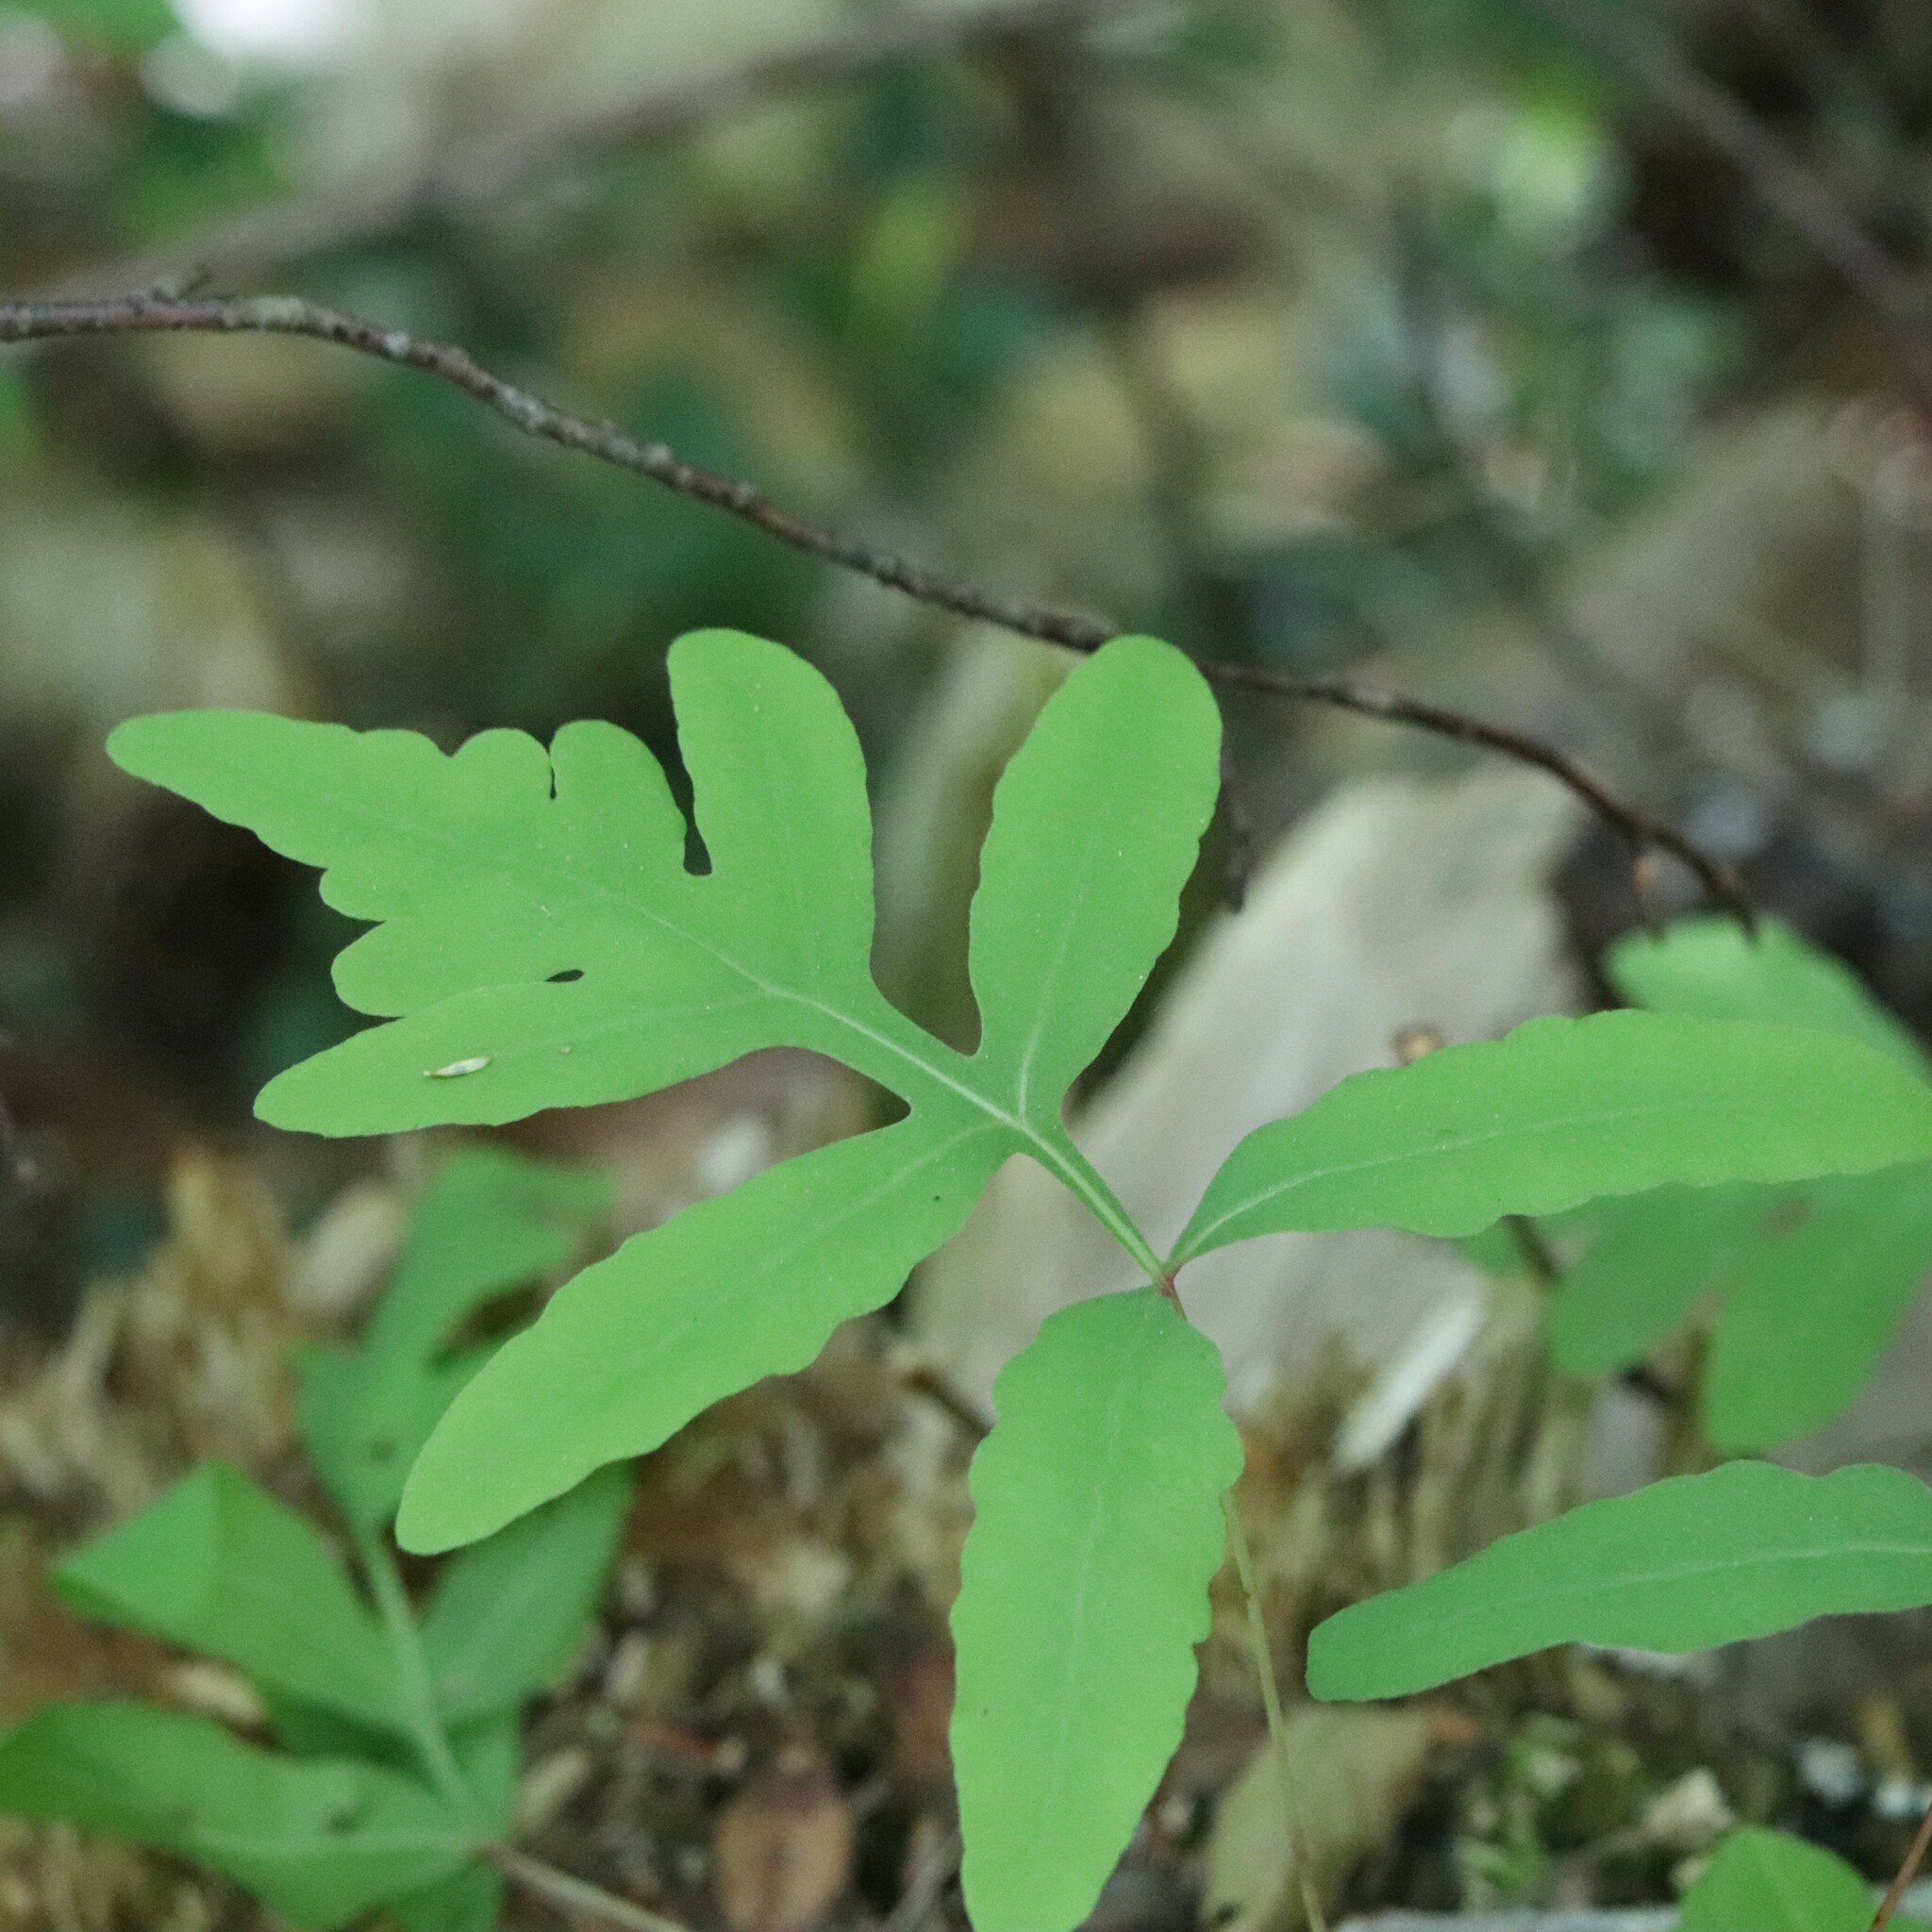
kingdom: Plantae
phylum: Tracheophyta
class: Polypodiopsida
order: Polypodiales
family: Onocleaceae
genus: Onoclea
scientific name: Onoclea sensibilis
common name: Sensitive fern
